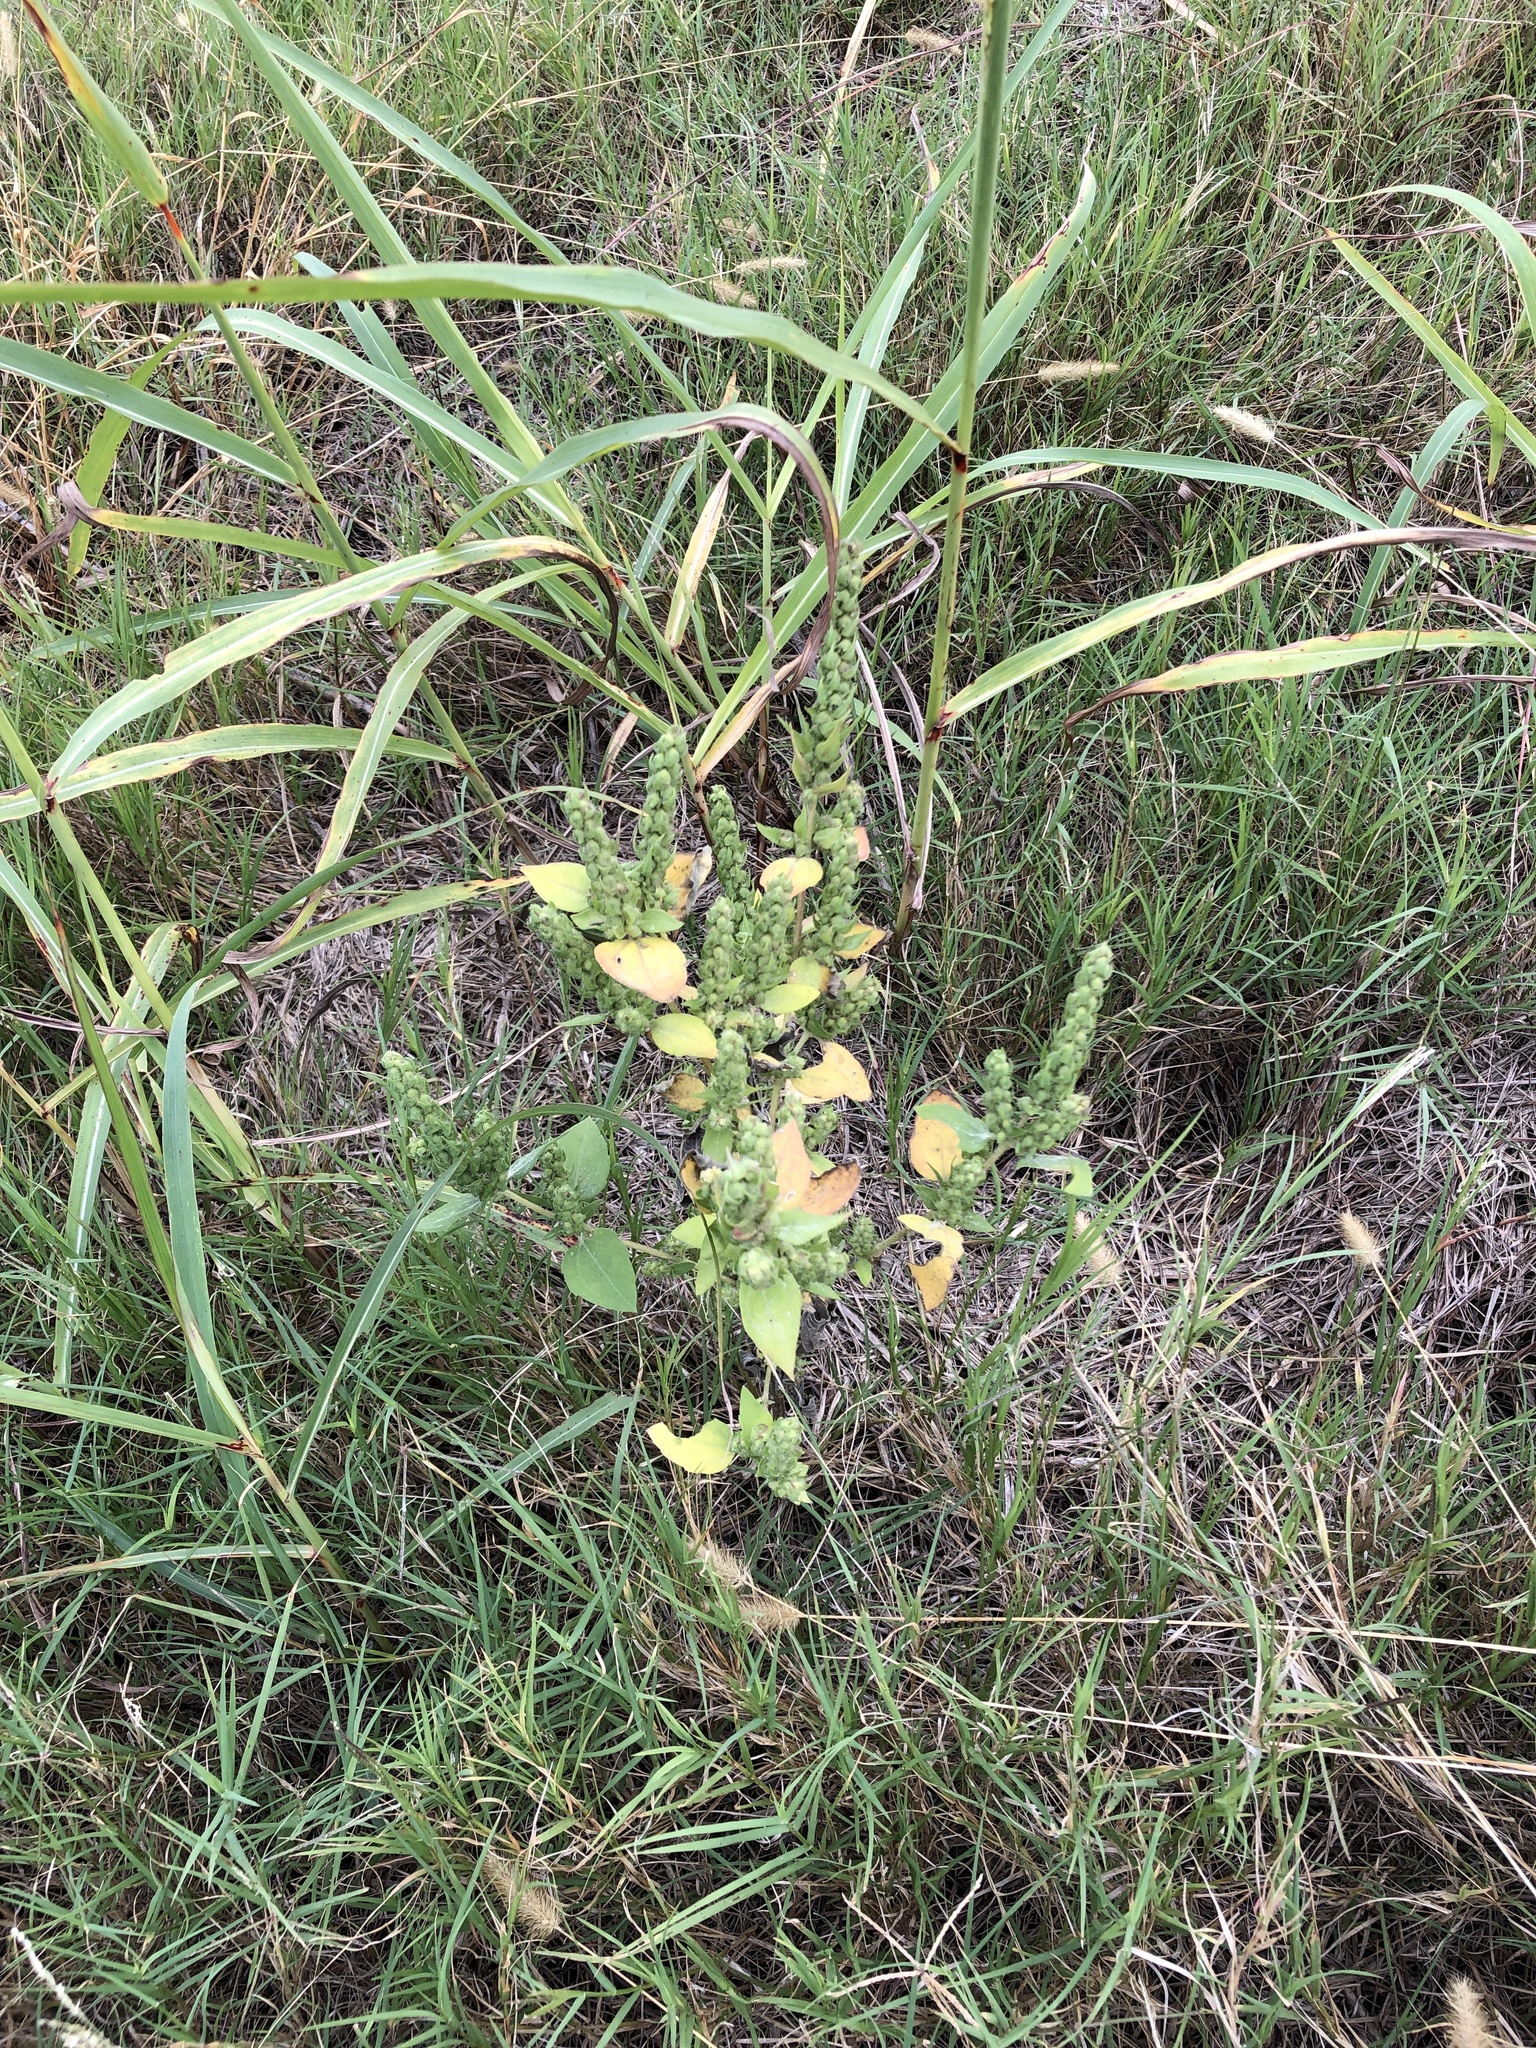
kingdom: Plantae
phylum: Tracheophyta
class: Magnoliopsida
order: Asterales
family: Asteraceae
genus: Iva
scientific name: Iva annua
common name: Marsh-elder
